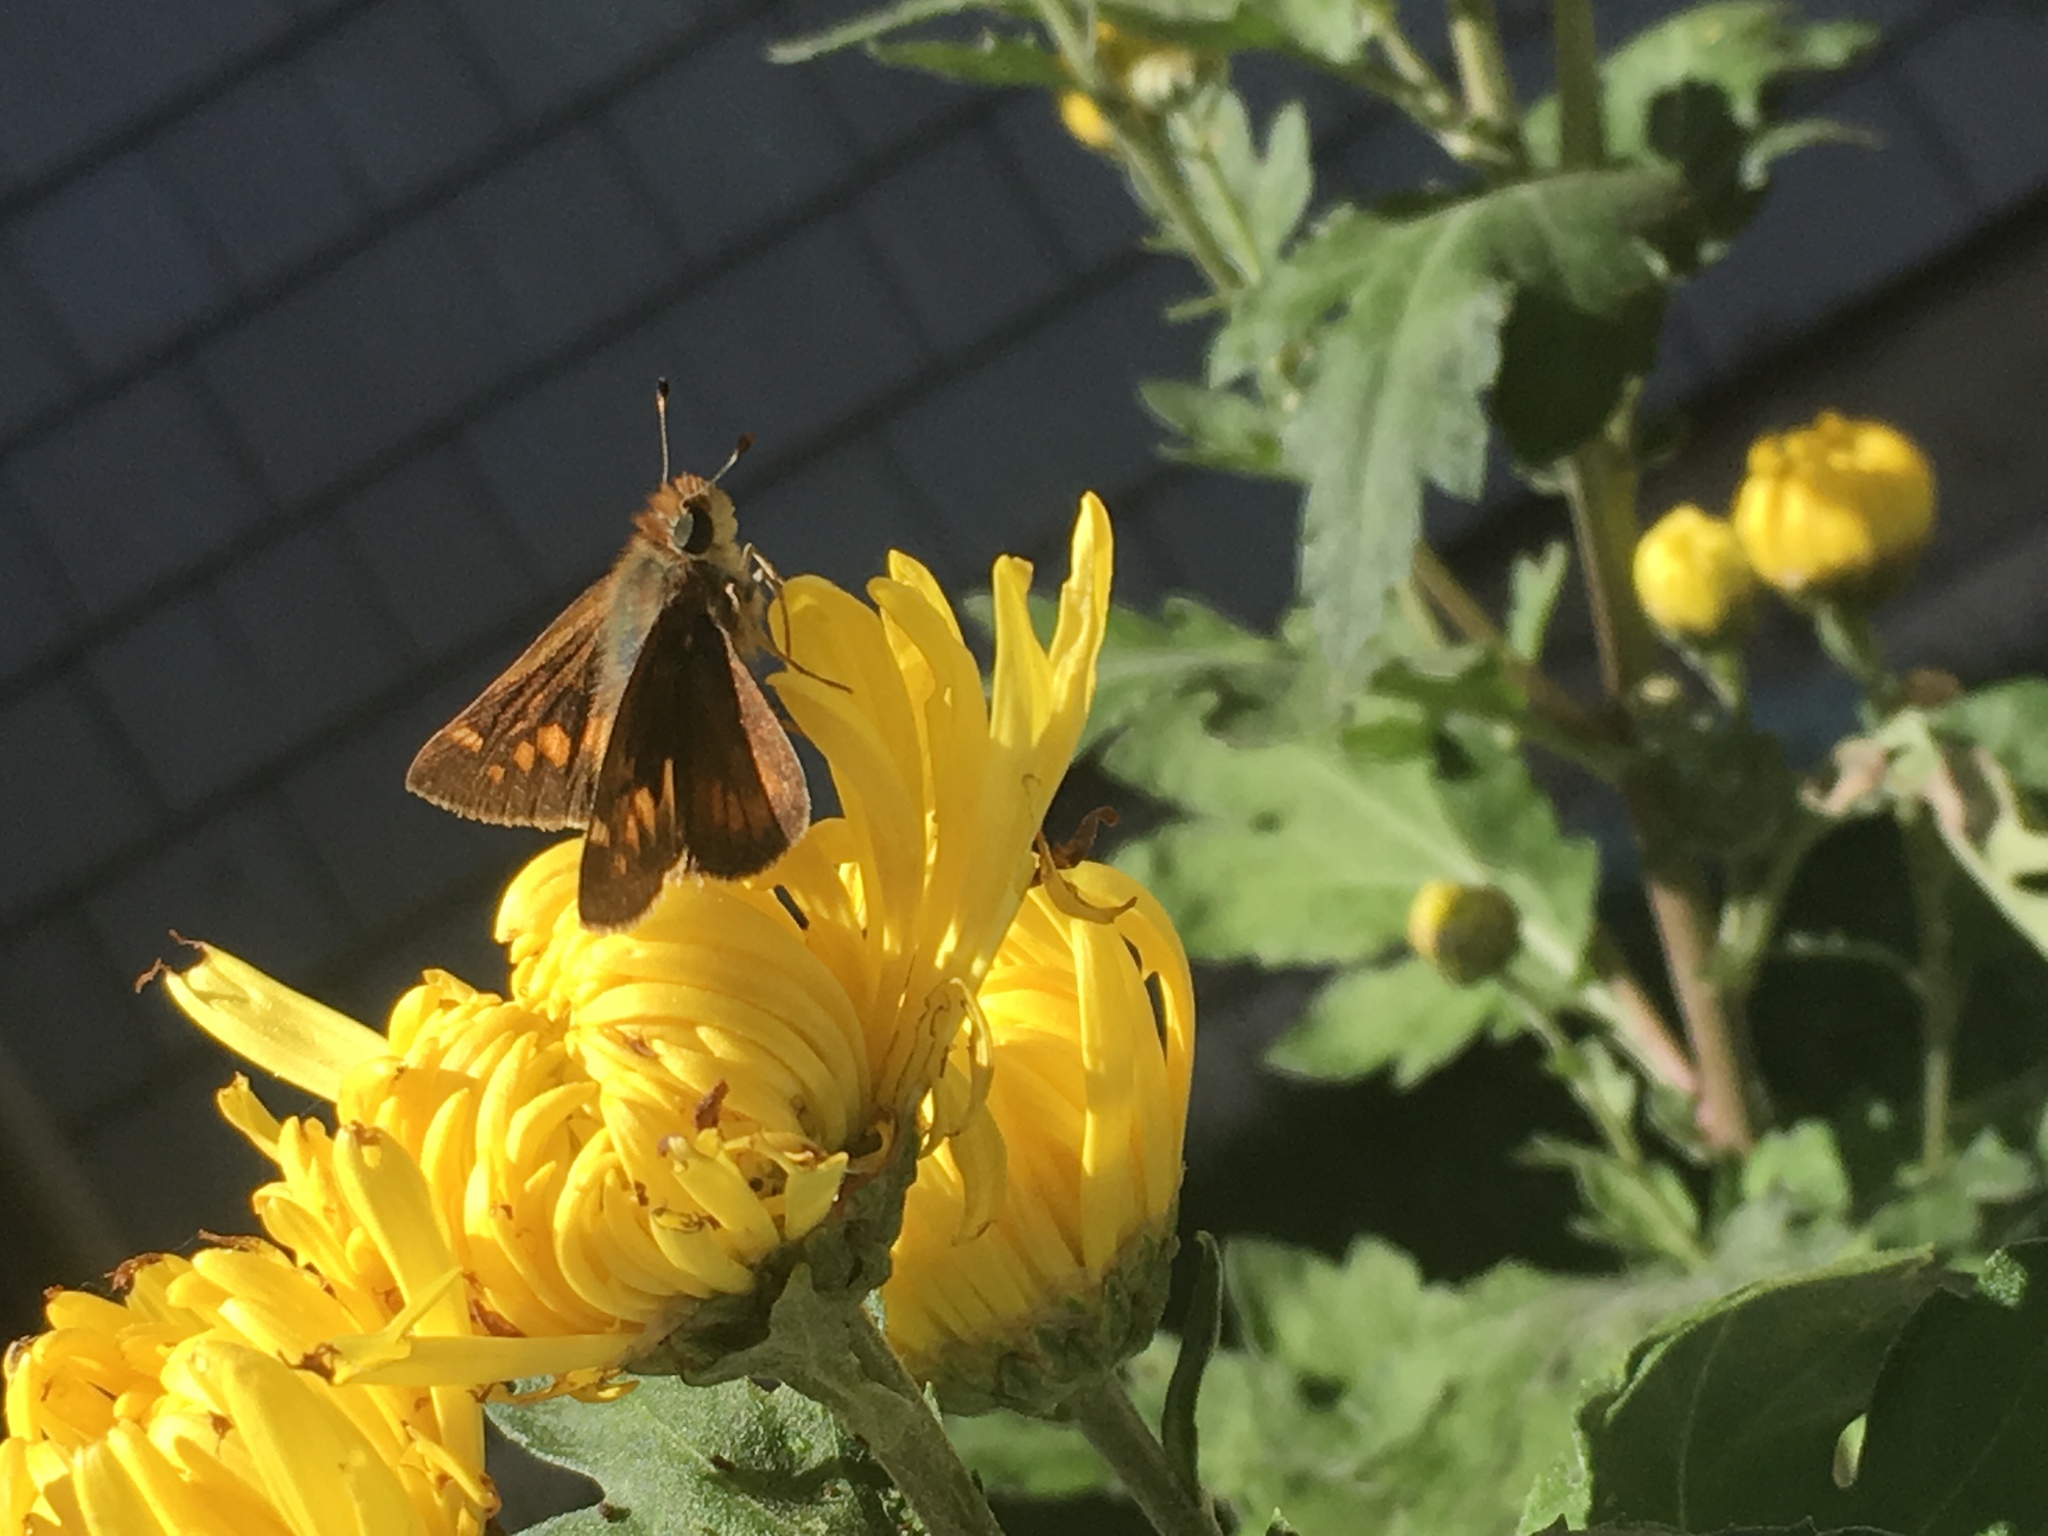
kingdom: Animalia
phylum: Arthropoda
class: Insecta
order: Lepidoptera
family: Hesperiidae
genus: Lon
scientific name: Lon melane
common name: Umber skipper
